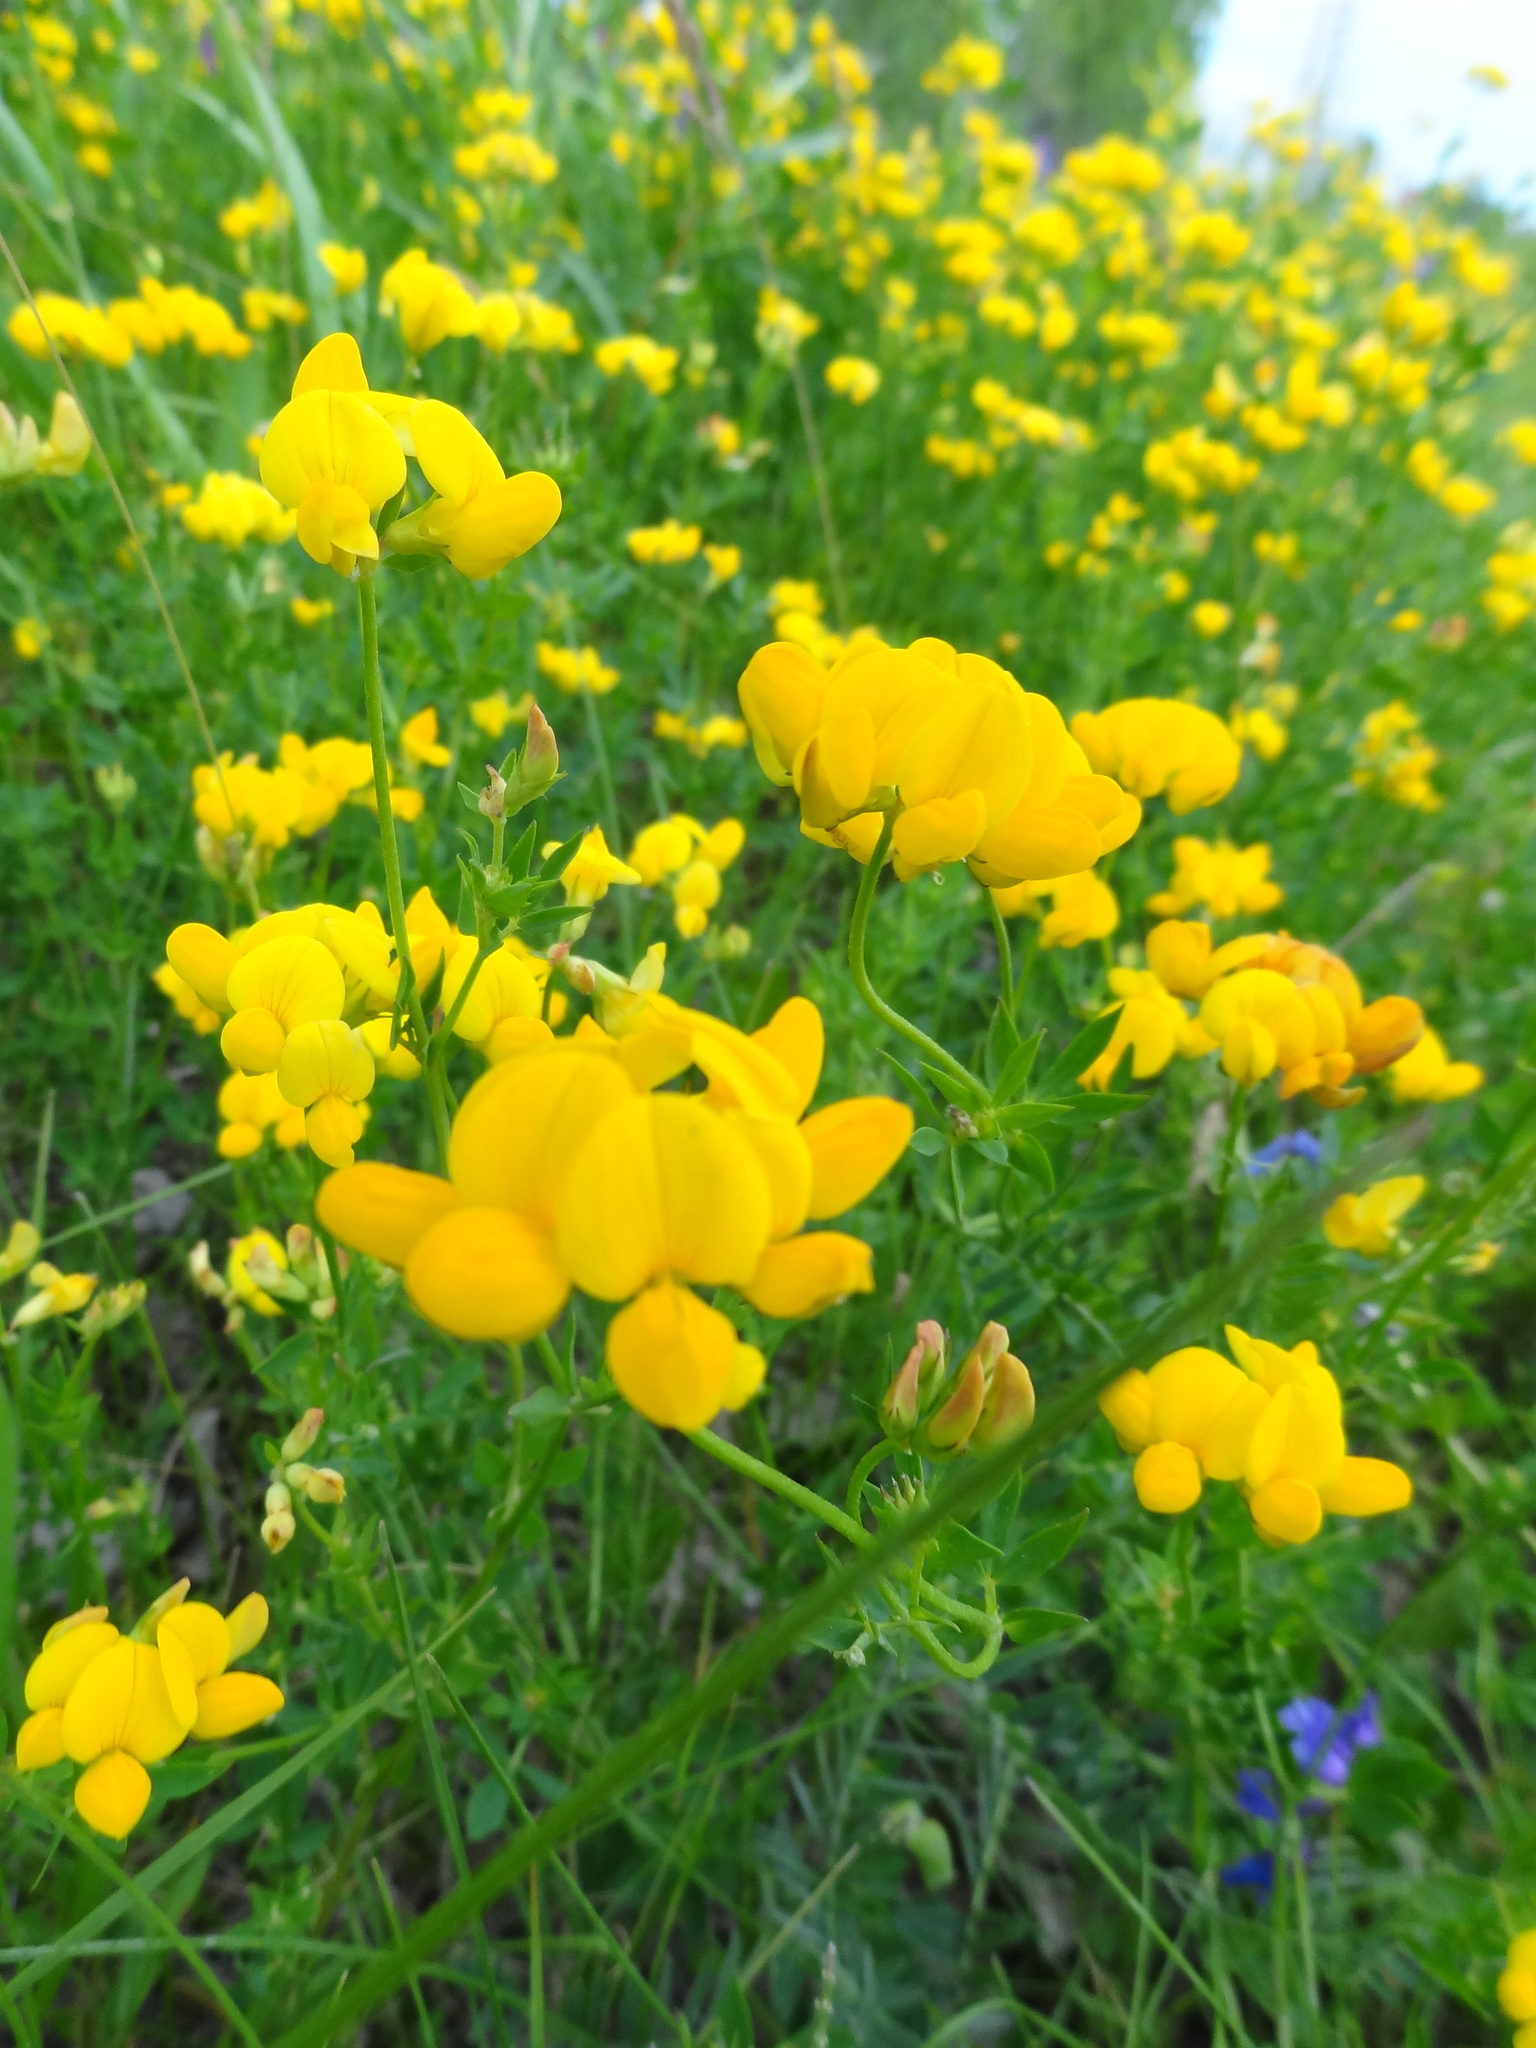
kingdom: Plantae
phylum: Tracheophyta
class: Magnoliopsida
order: Fabales
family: Fabaceae
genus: Lotus
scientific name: Lotus corniculatus
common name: Common bird's-foot-trefoil
